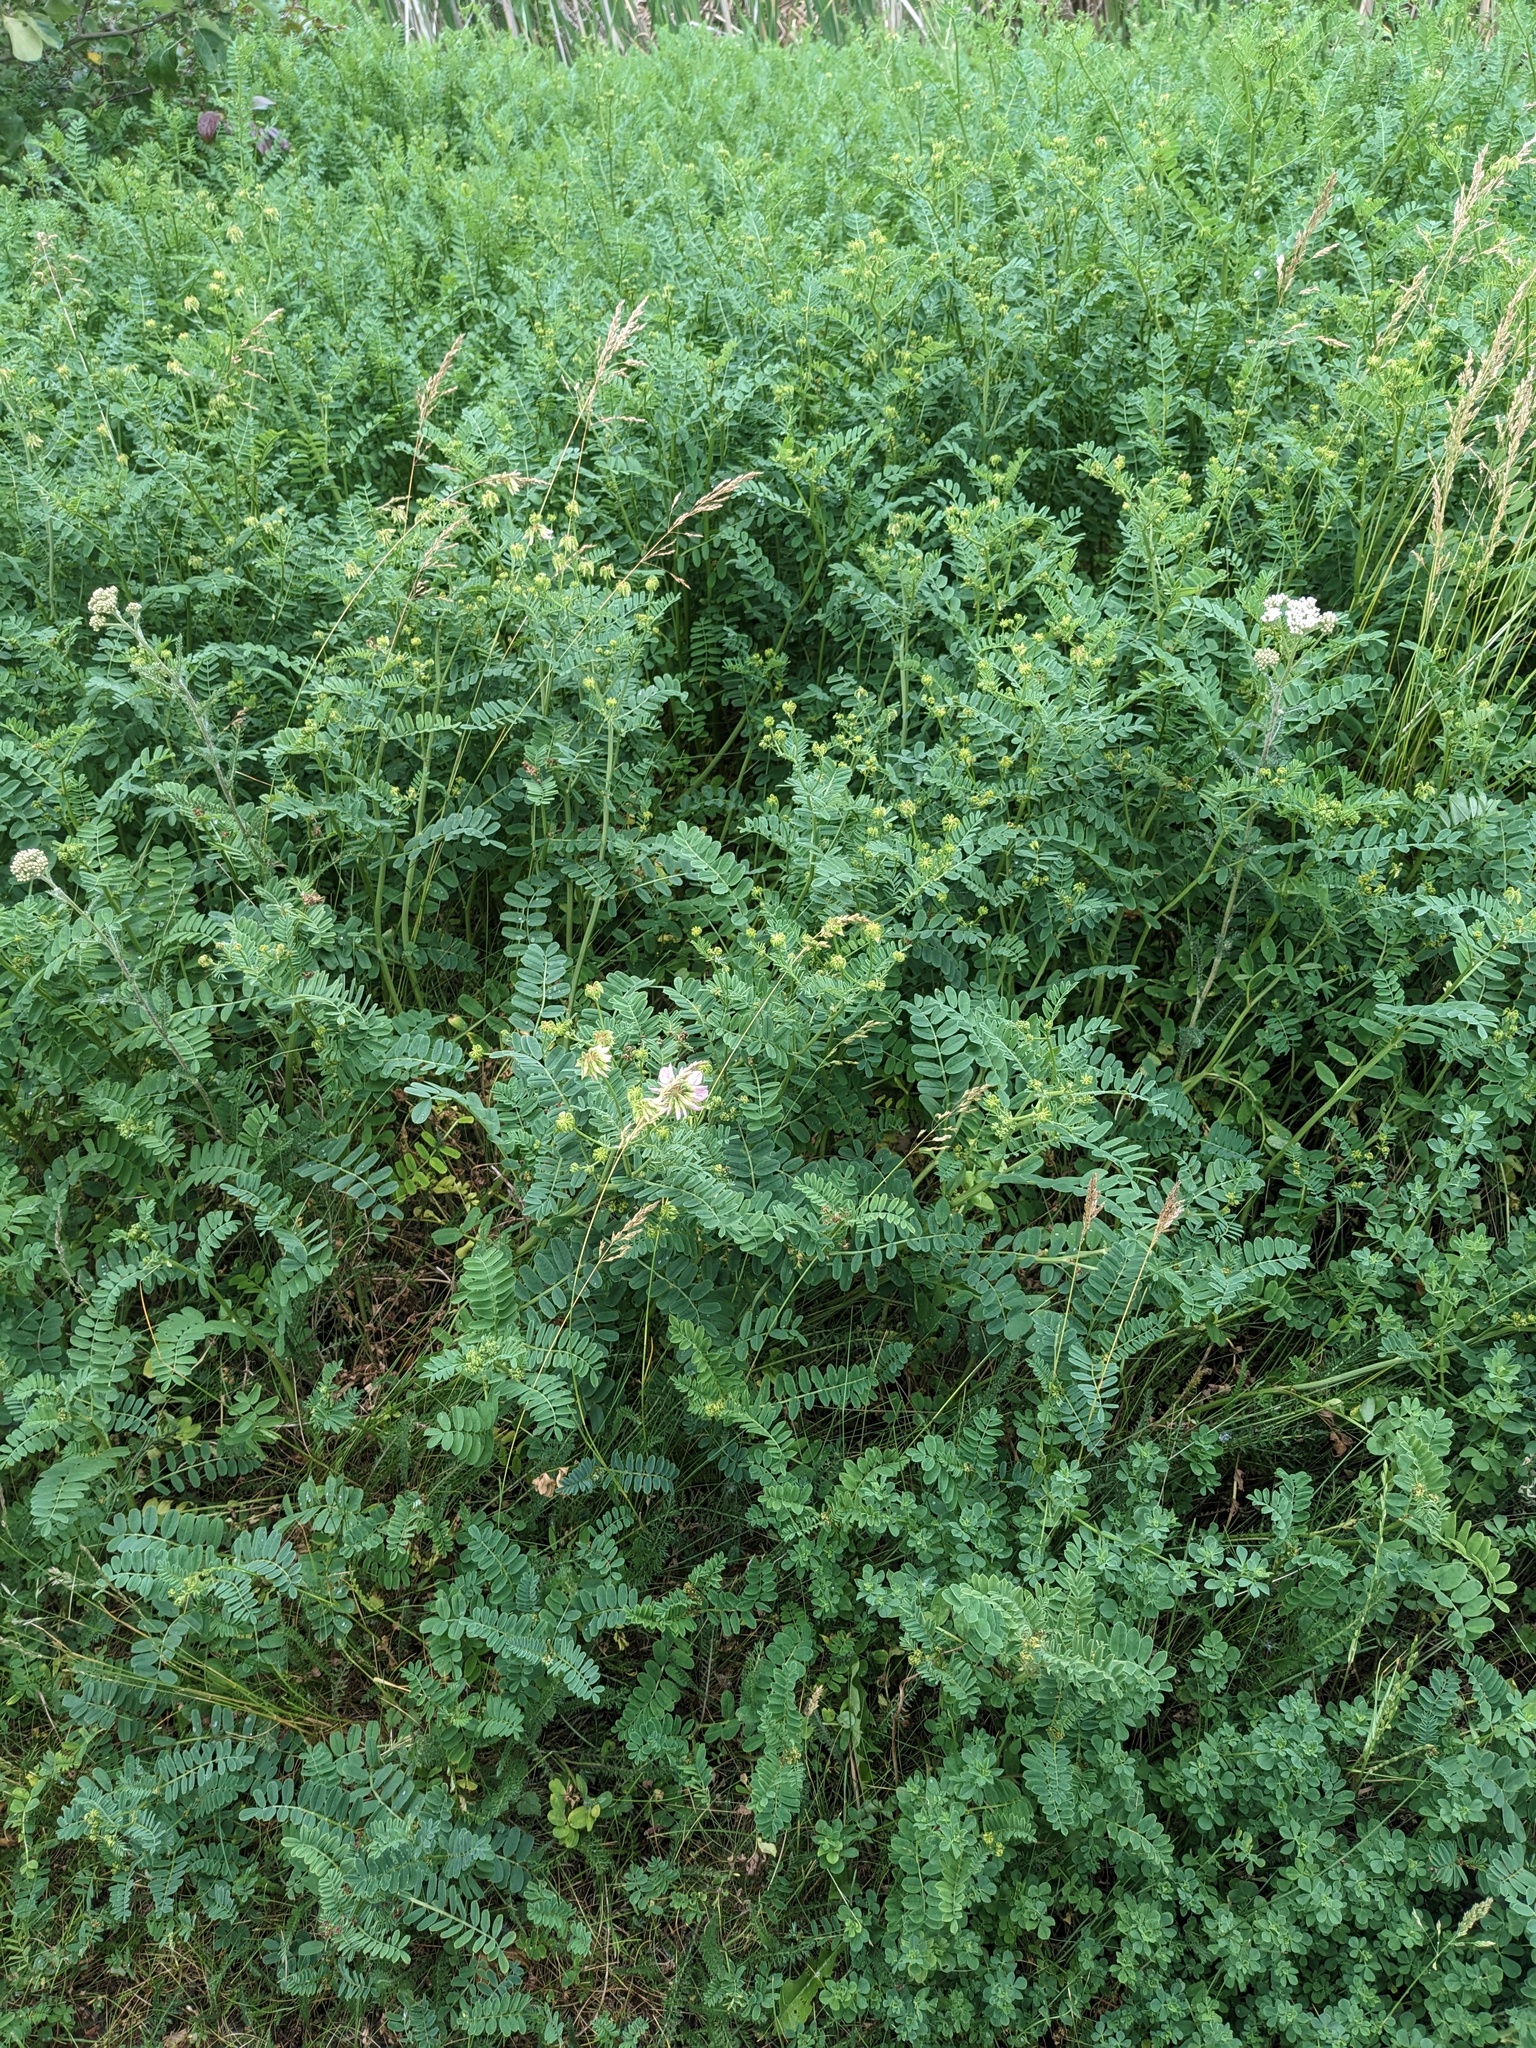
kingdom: Plantae
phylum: Tracheophyta
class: Magnoliopsida
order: Fabales
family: Fabaceae
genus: Coronilla
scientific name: Coronilla varia
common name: Crownvetch
